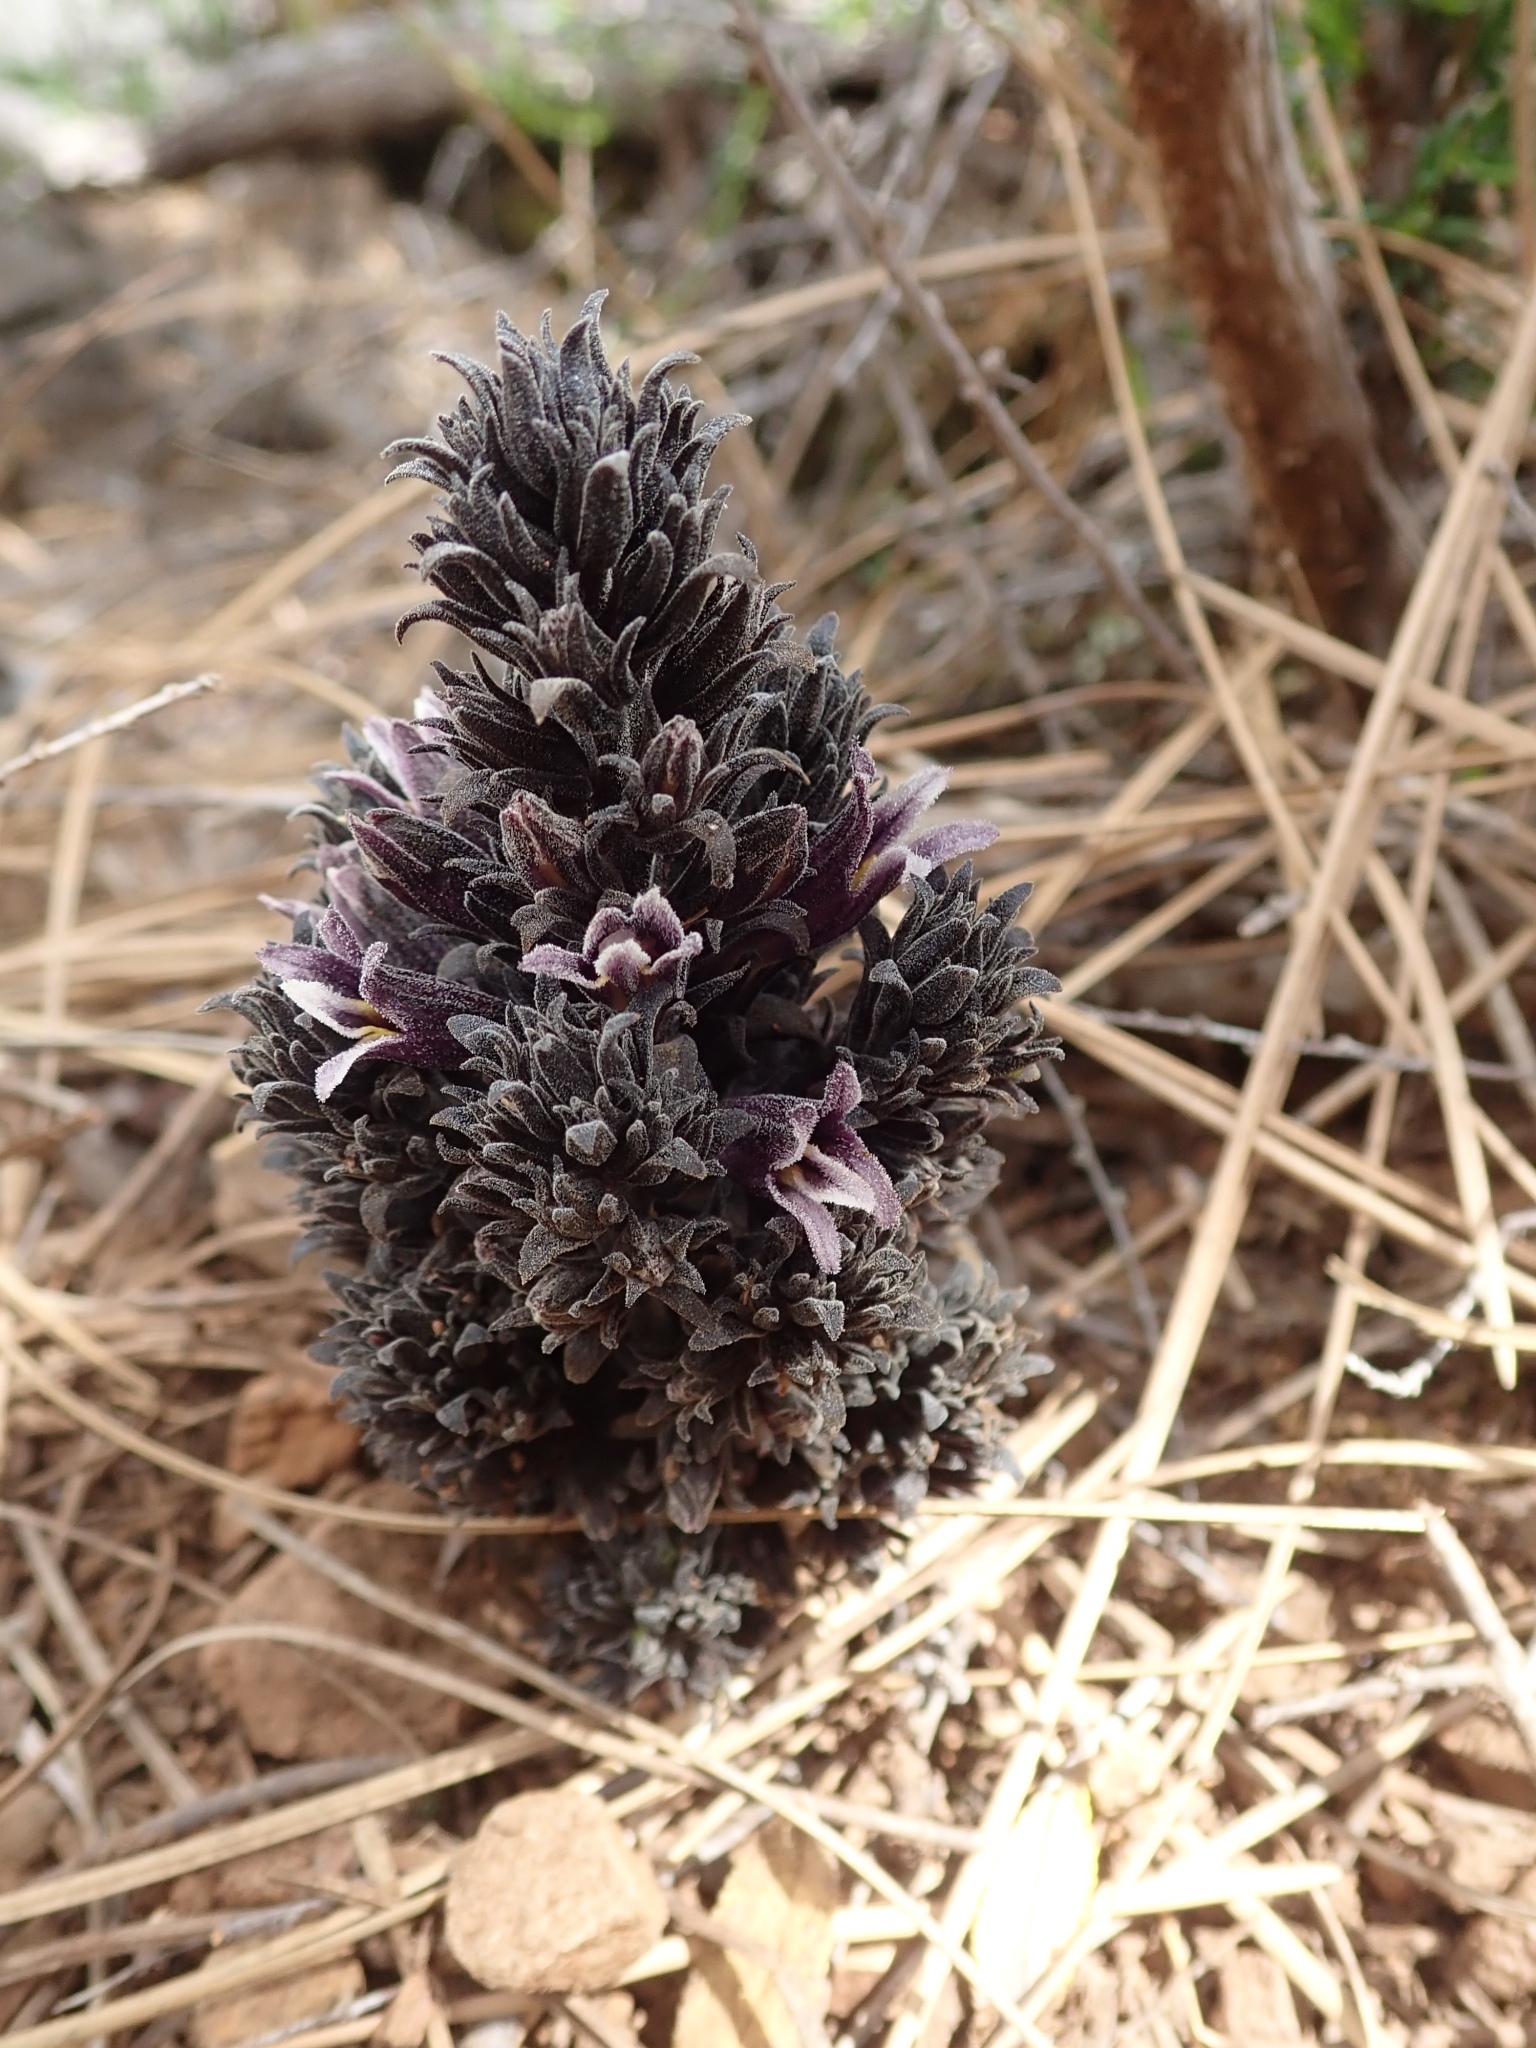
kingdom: Plantae
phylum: Tracheophyta
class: Magnoliopsida
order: Lamiales
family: Orobanchaceae
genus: Aphyllon
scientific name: Aphyllon tuberosum
